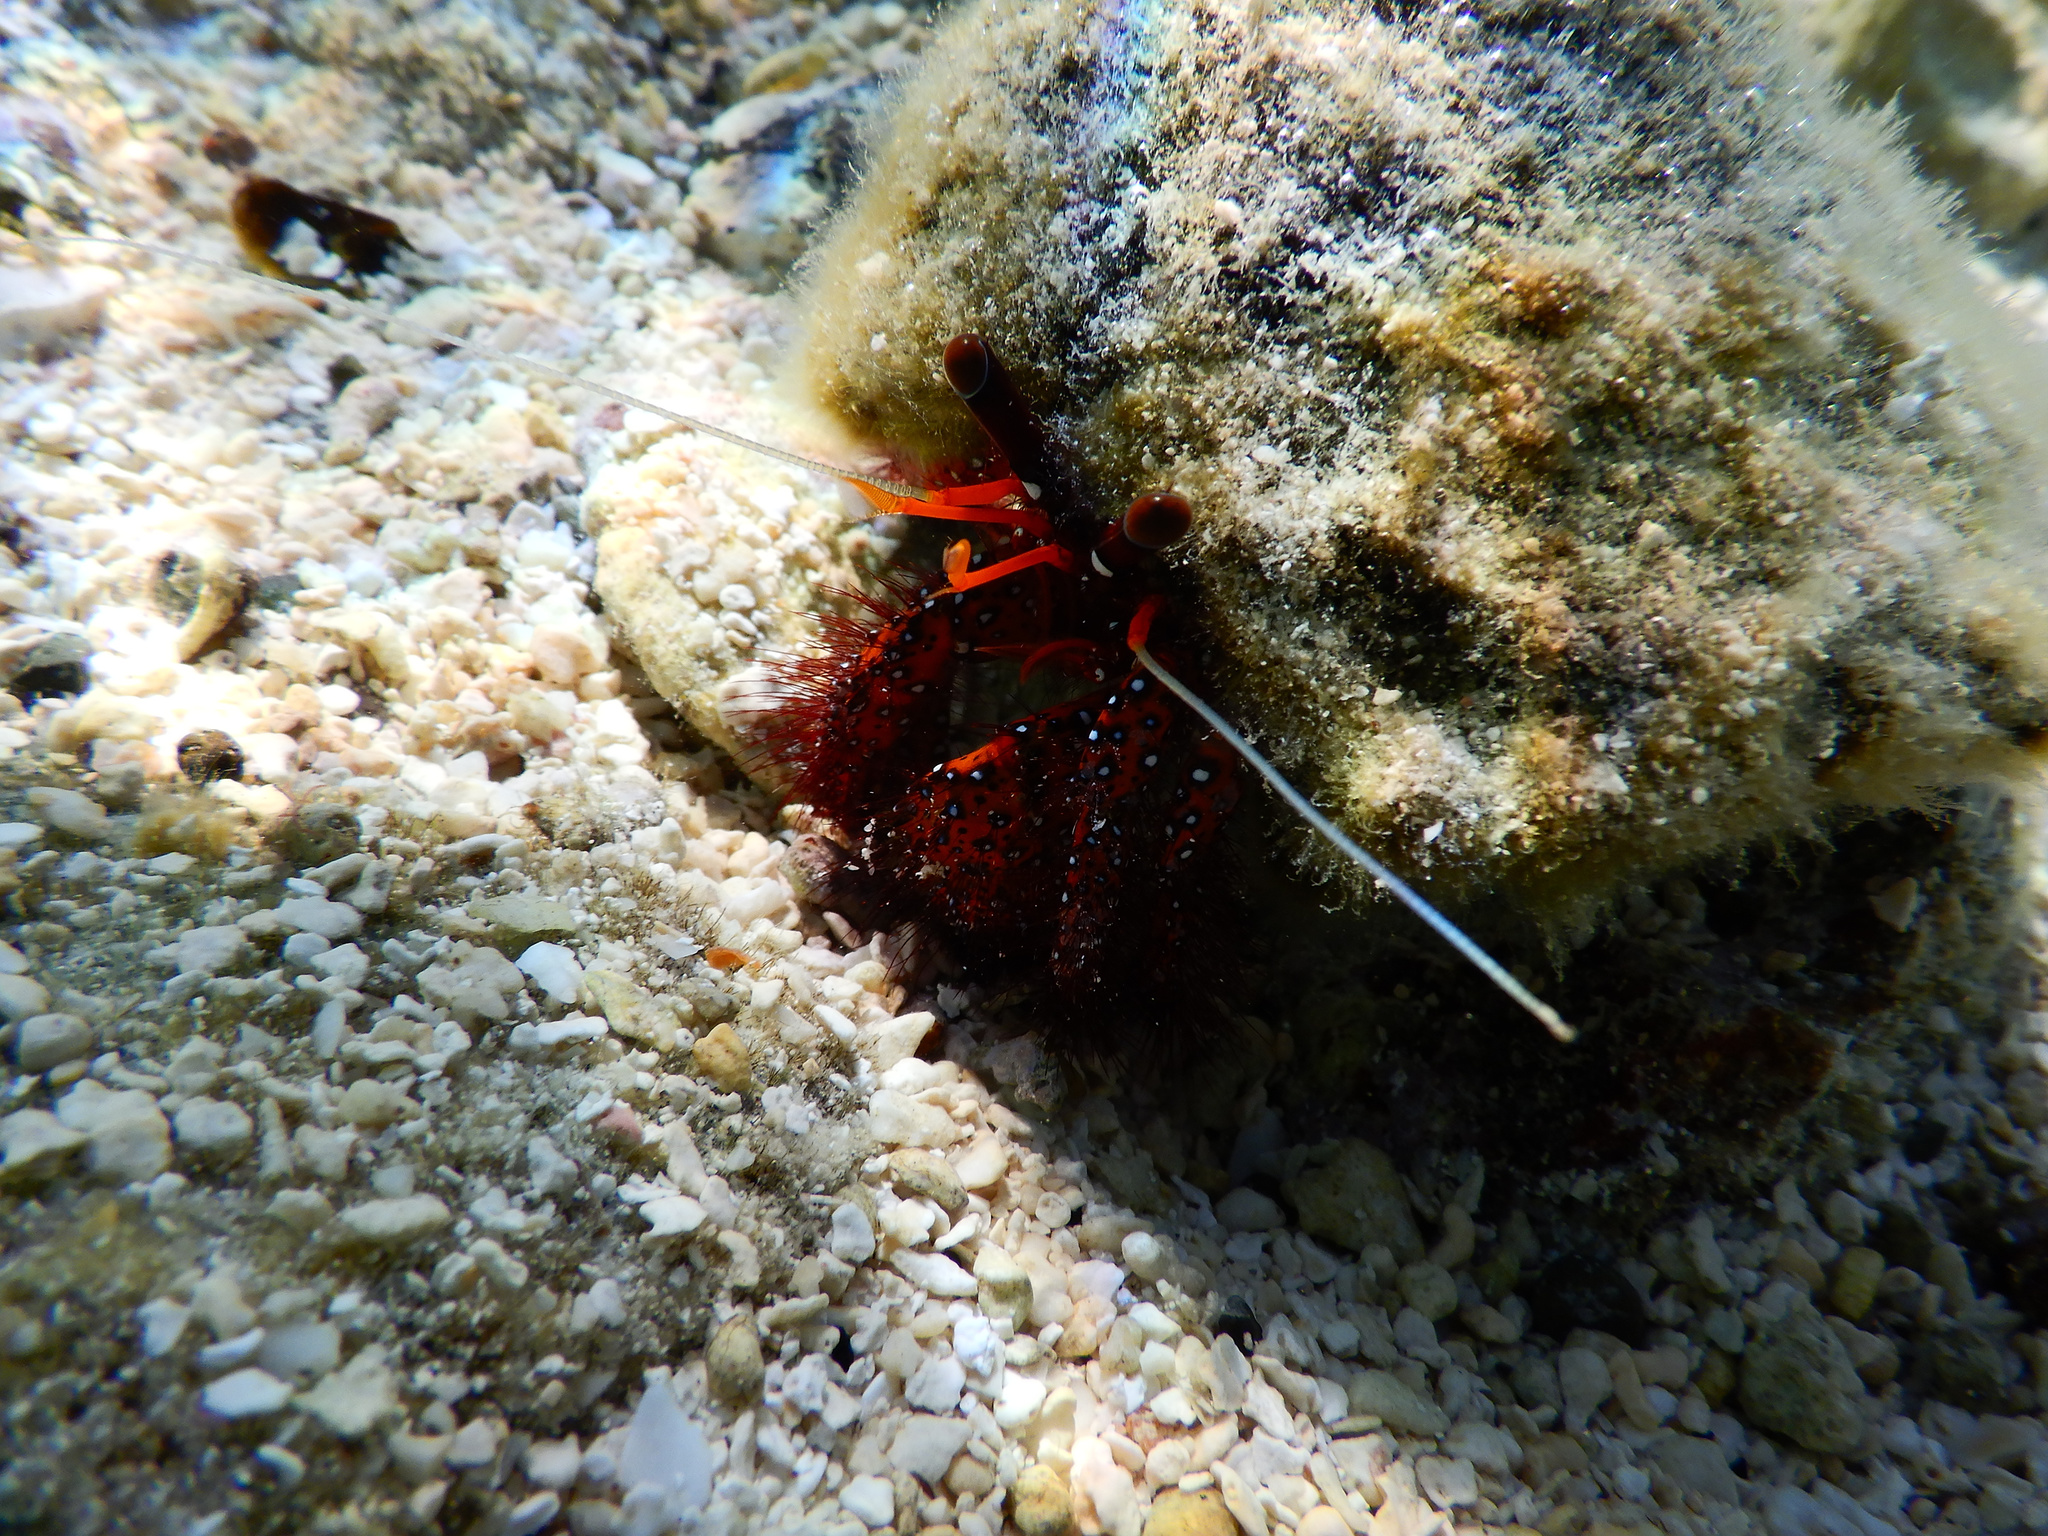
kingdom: Animalia
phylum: Arthropoda
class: Malacostraca
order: Decapoda
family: Diogenidae
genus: Dardanus
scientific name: Dardanus megistos
